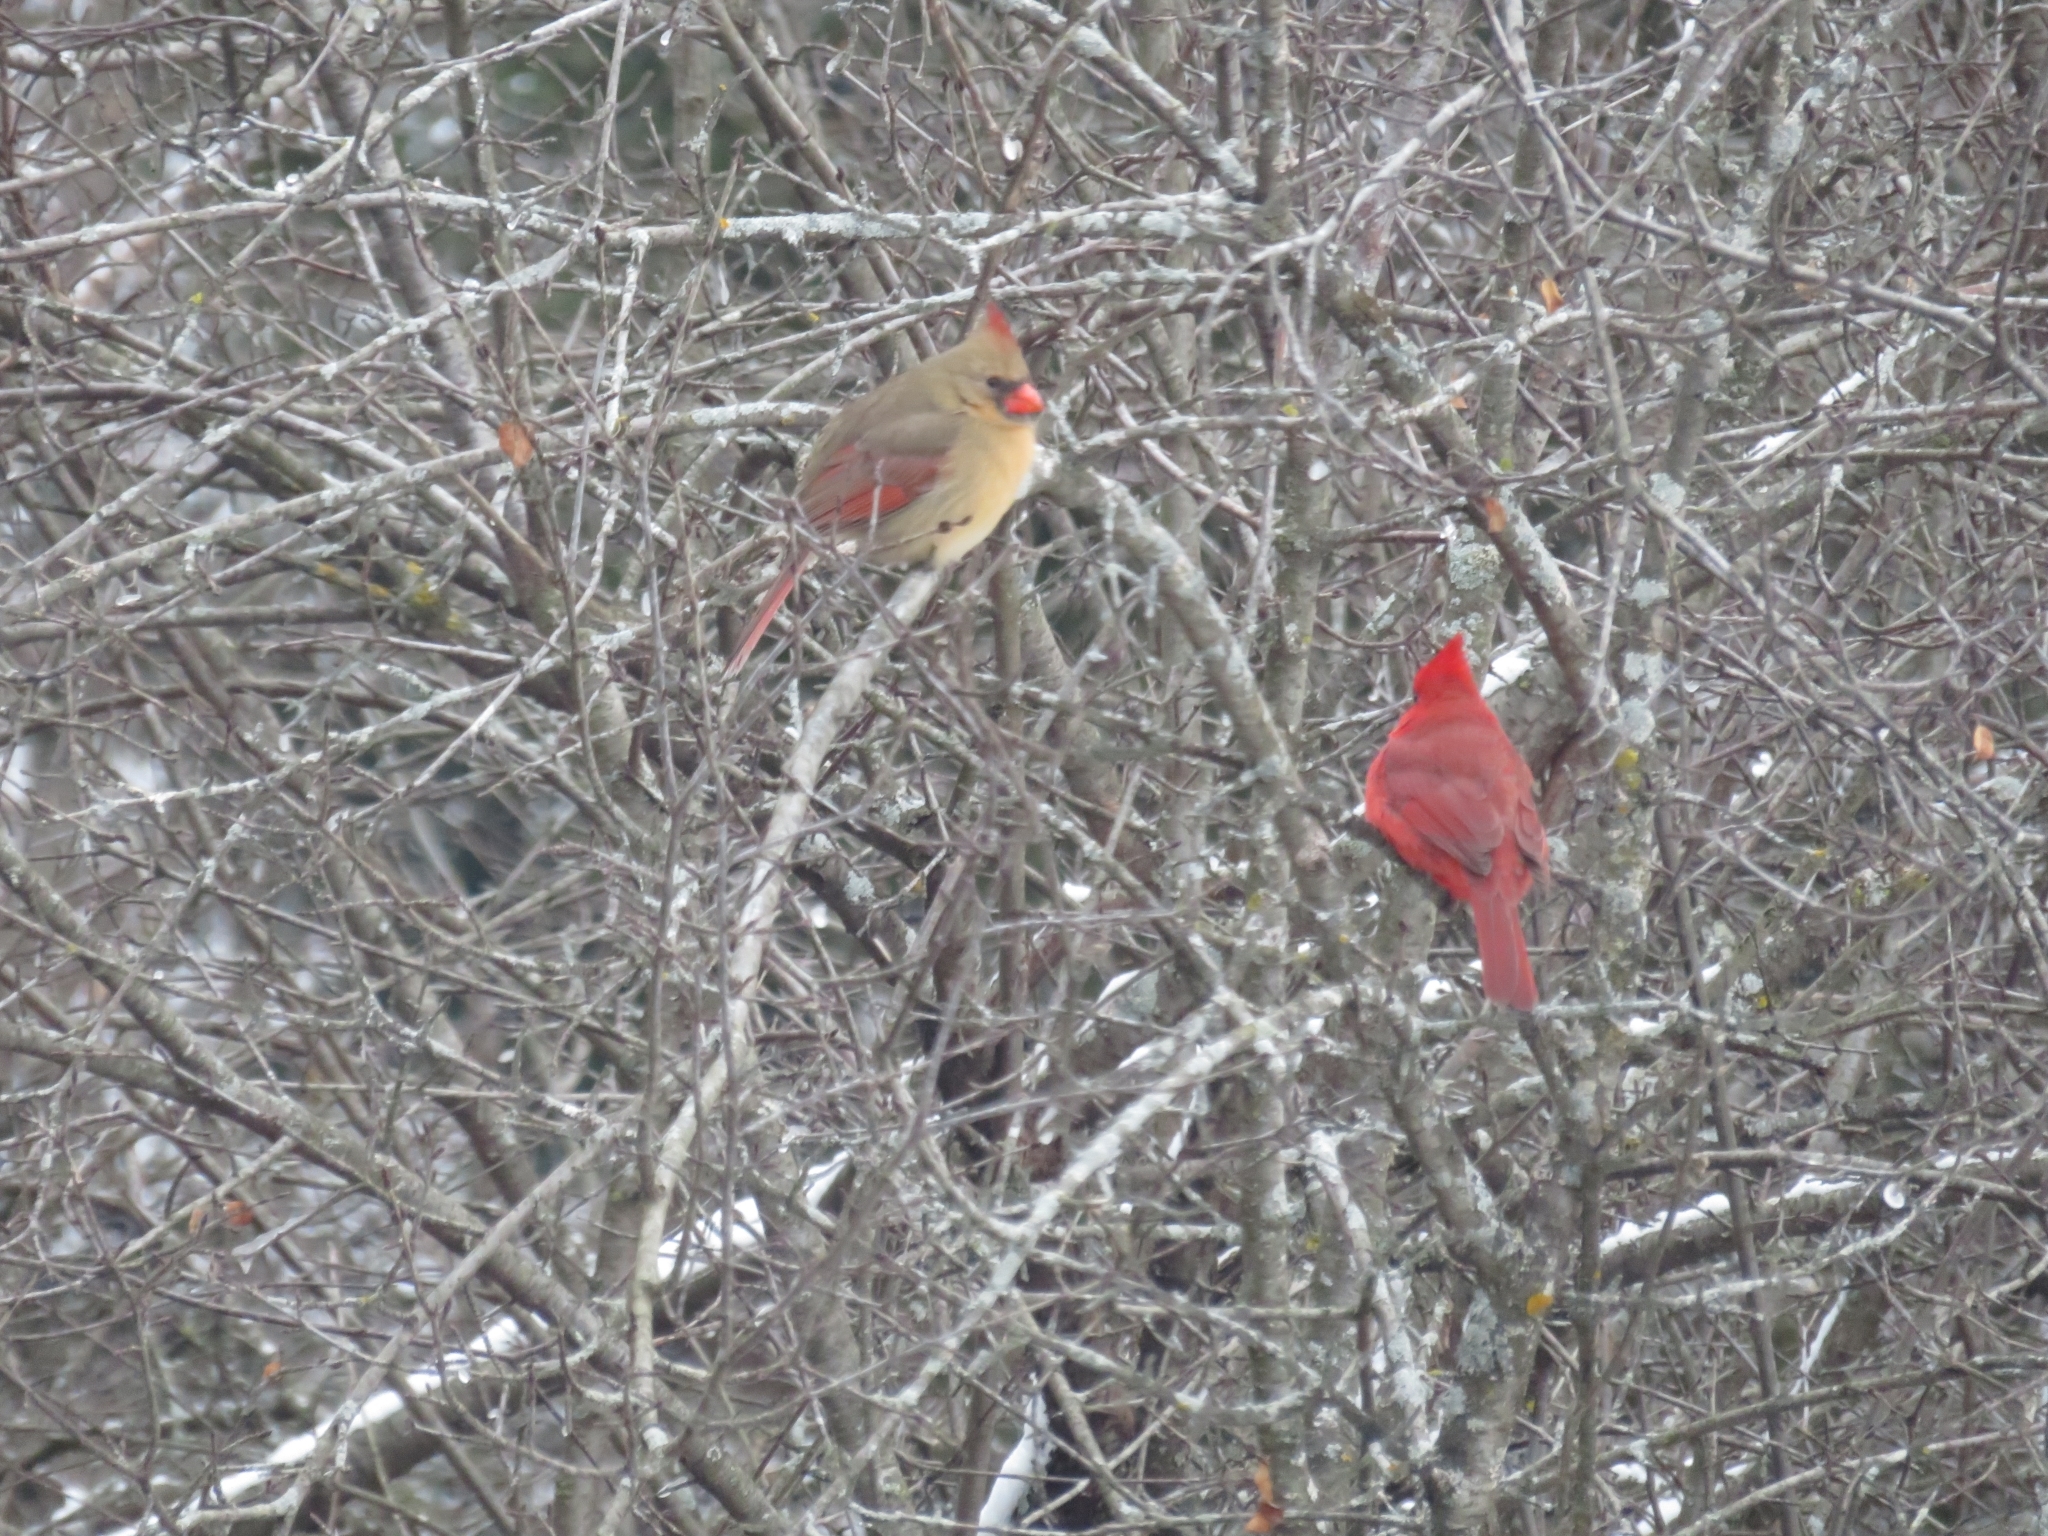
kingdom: Animalia
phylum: Chordata
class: Aves
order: Passeriformes
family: Cardinalidae
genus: Cardinalis
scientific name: Cardinalis cardinalis
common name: Northern cardinal
